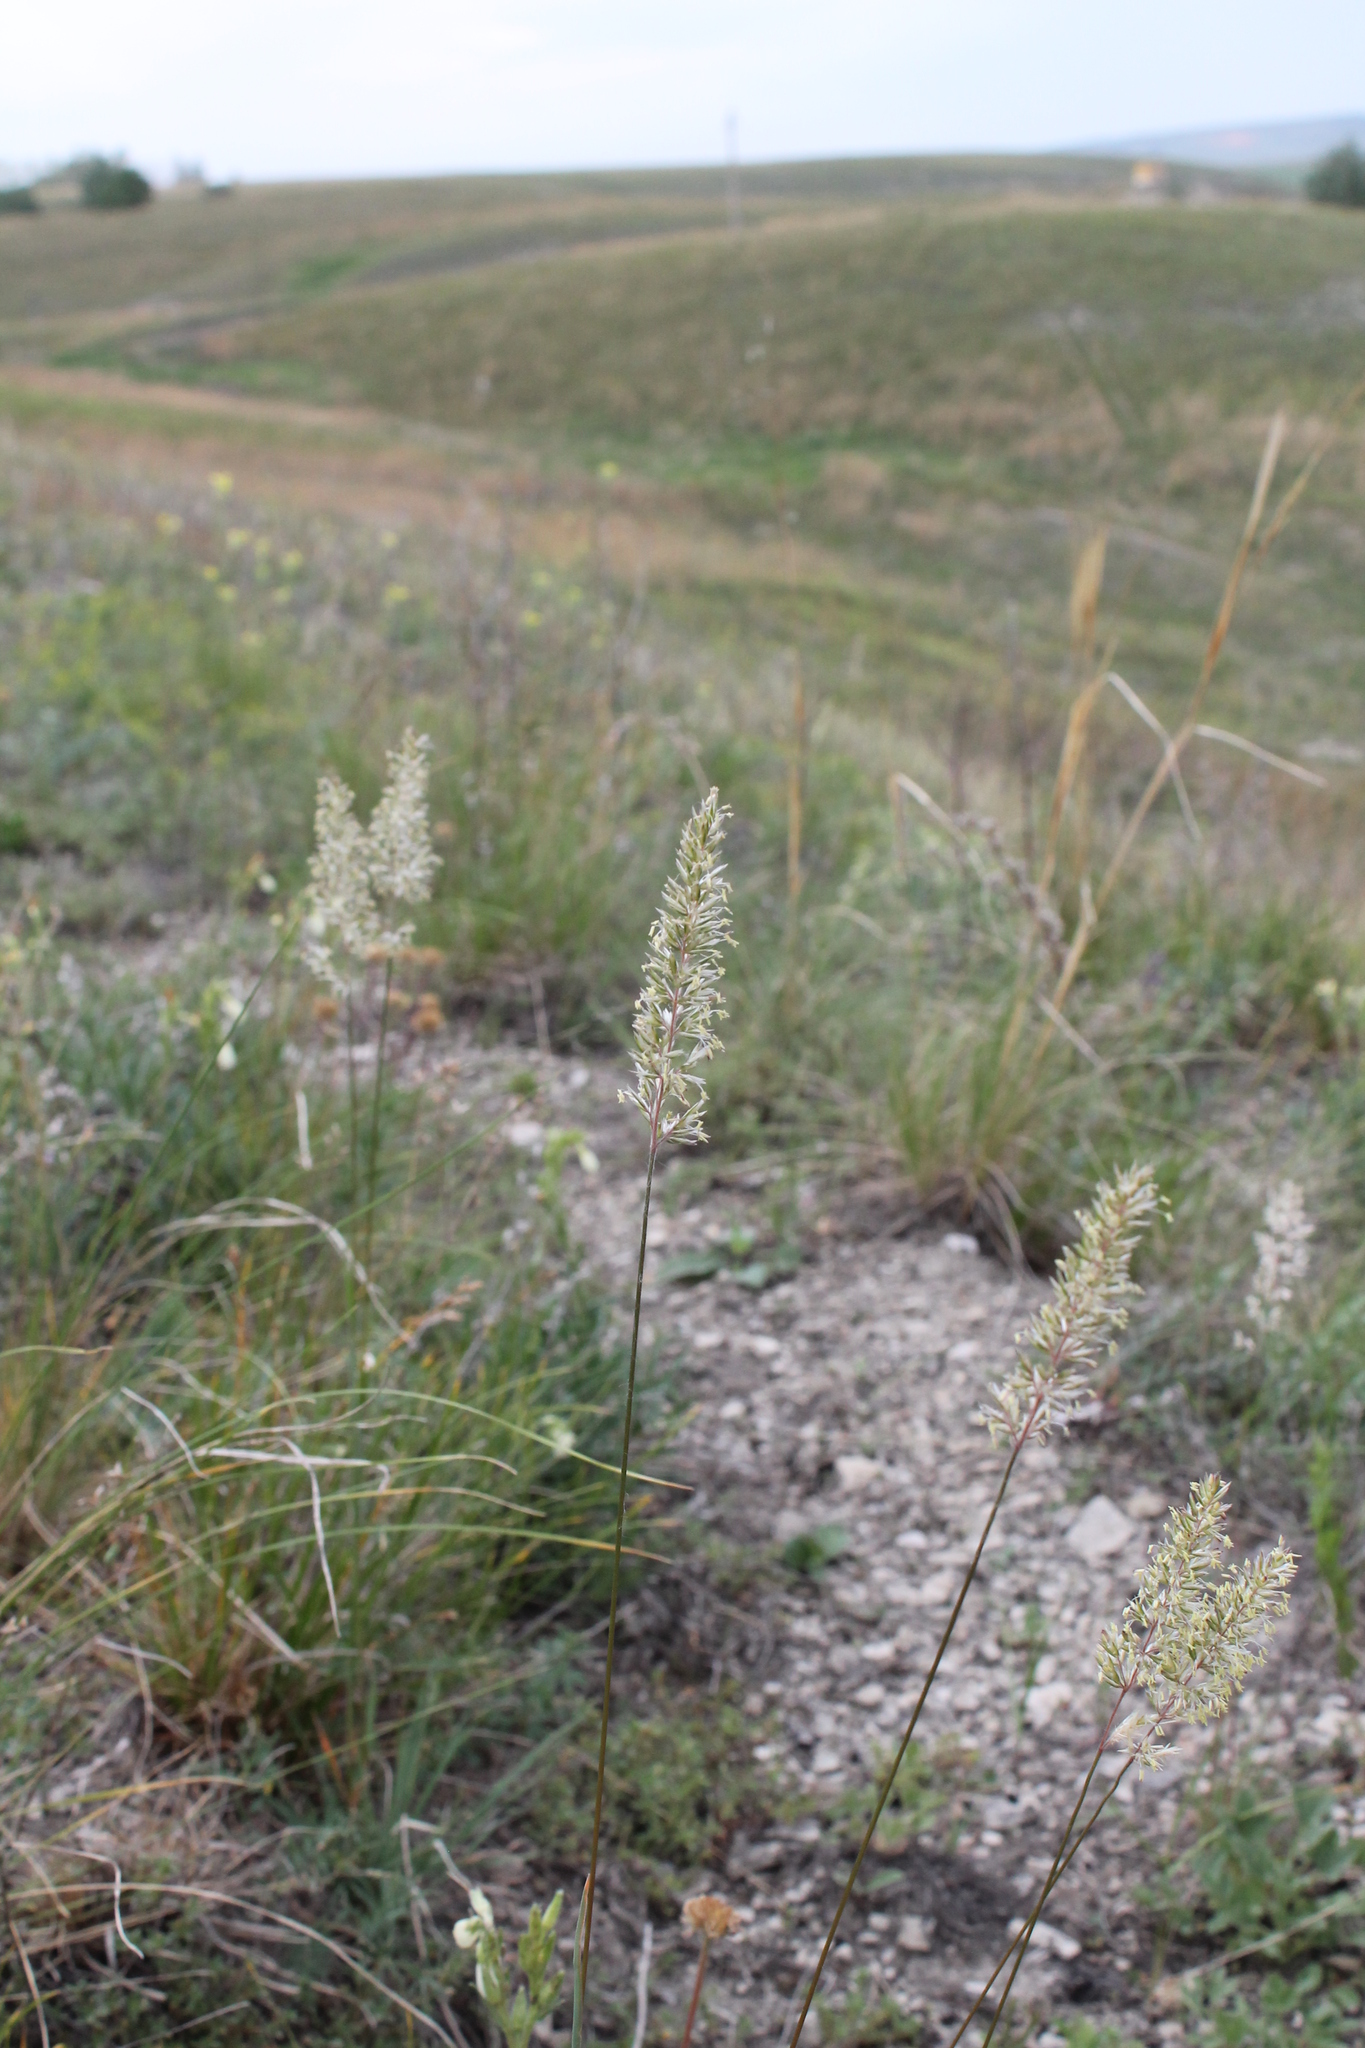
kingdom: Plantae
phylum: Tracheophyta
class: Liliopsida
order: Poales
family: Poaceae
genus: Koeleria
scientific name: Koeleria macrantha
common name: Crested hair-grass
